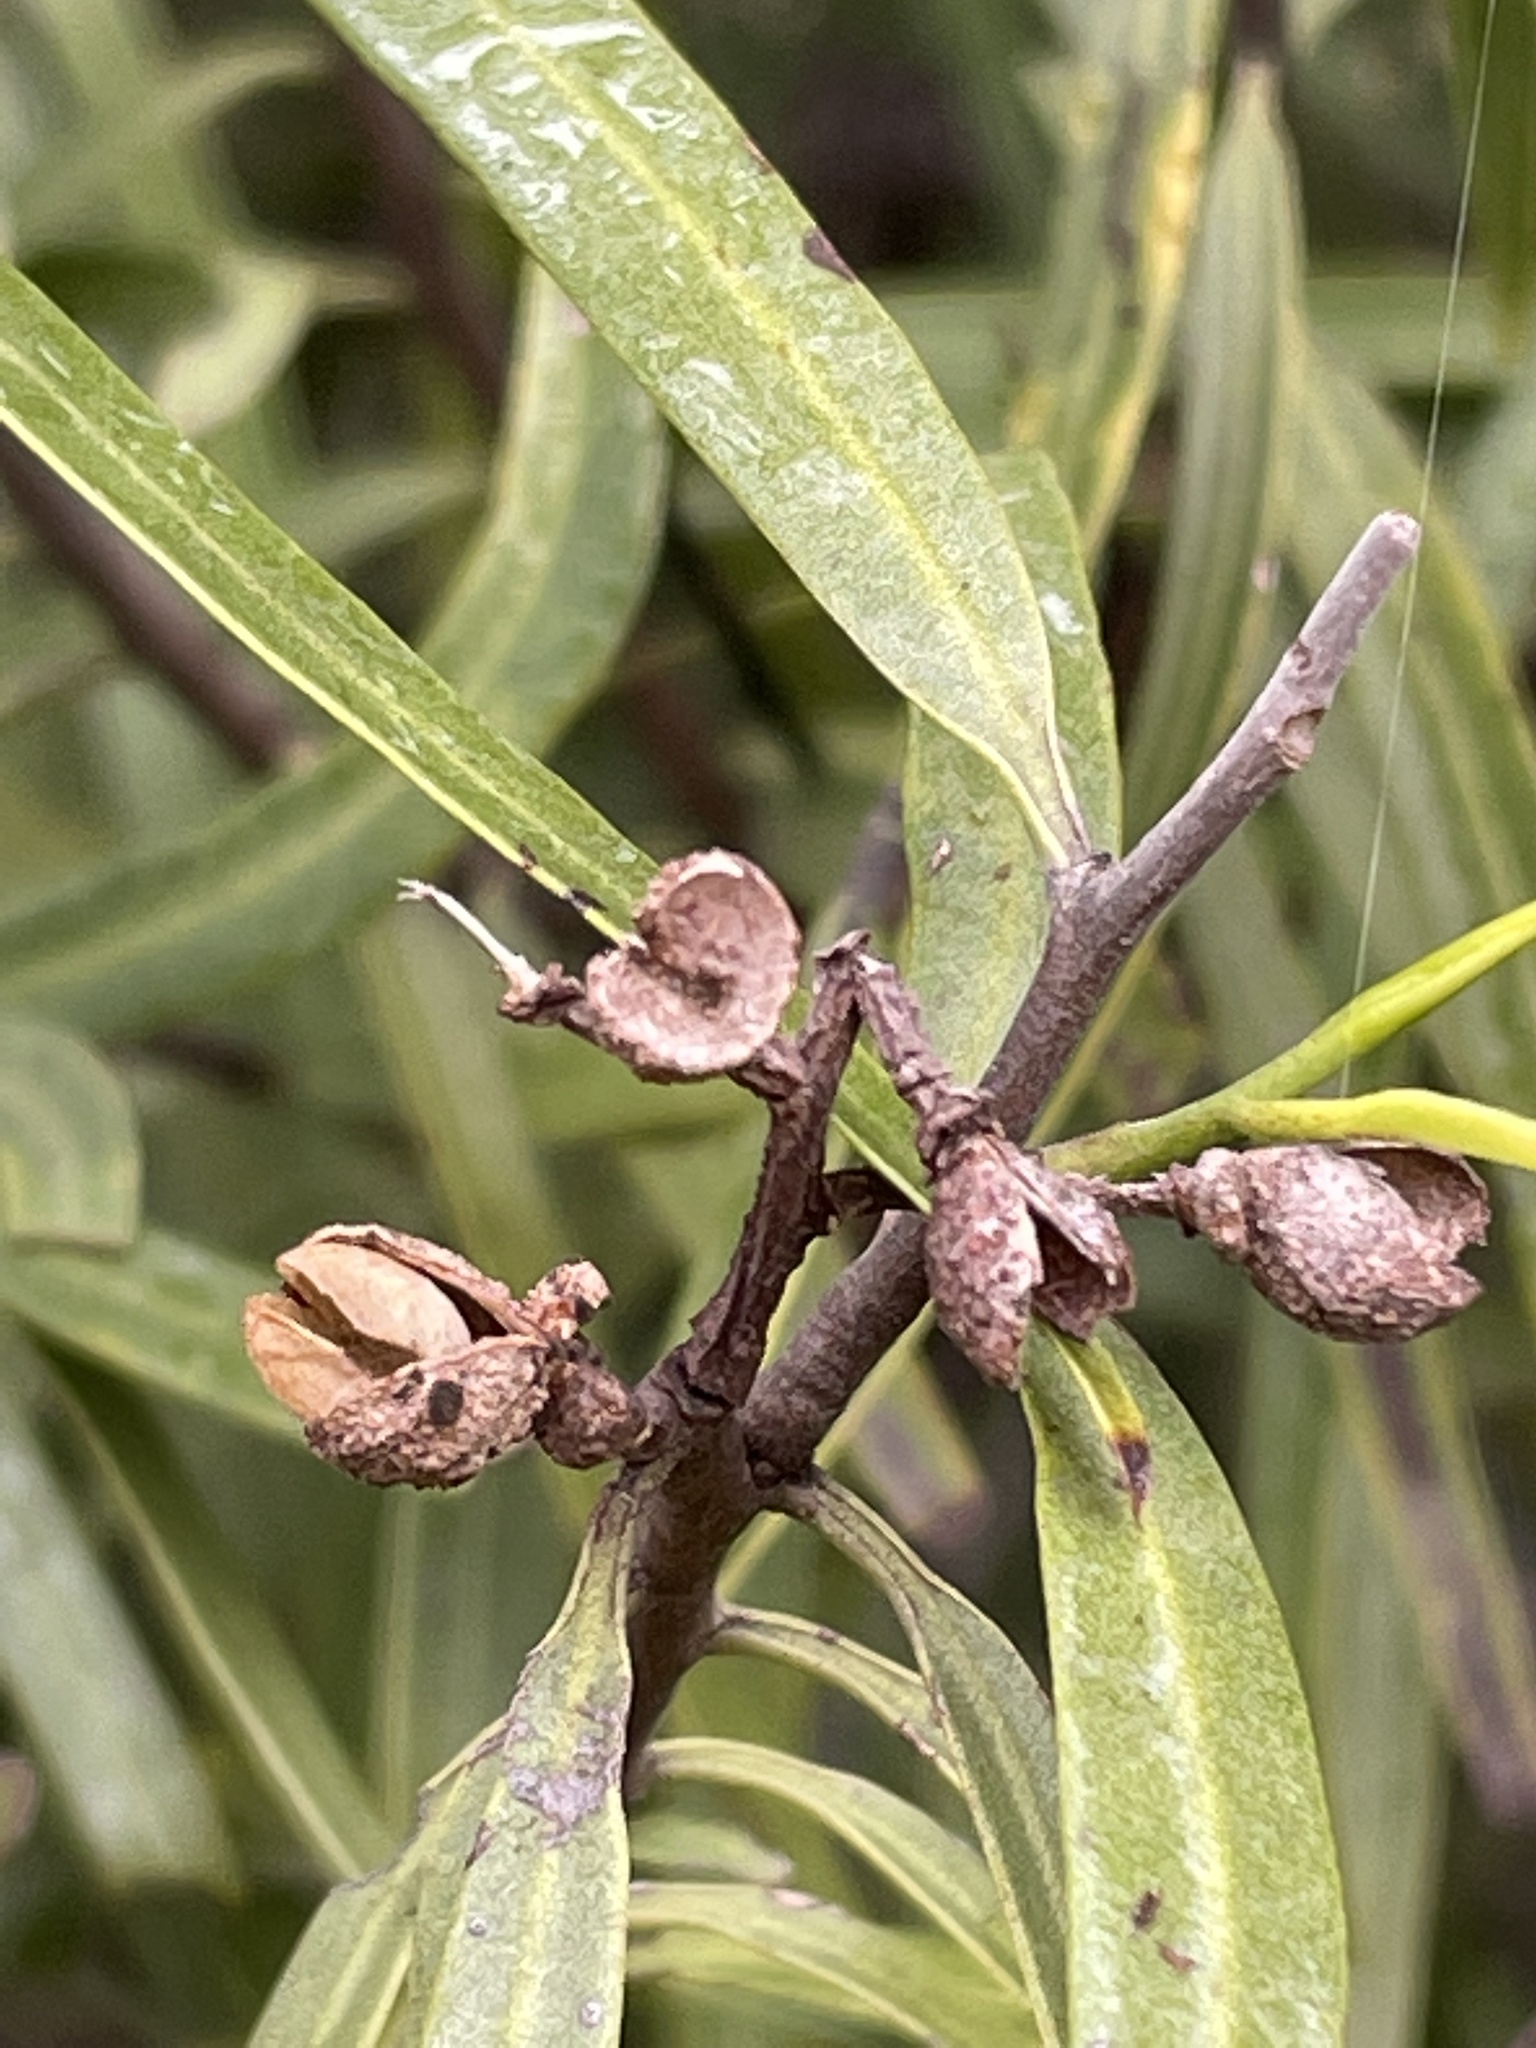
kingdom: Plantae
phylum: Tracheophyta
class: Magnoliopsida
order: Sapindales
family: Rutaceae
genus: Geijera
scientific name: Geijera parviflora
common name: Wilga
